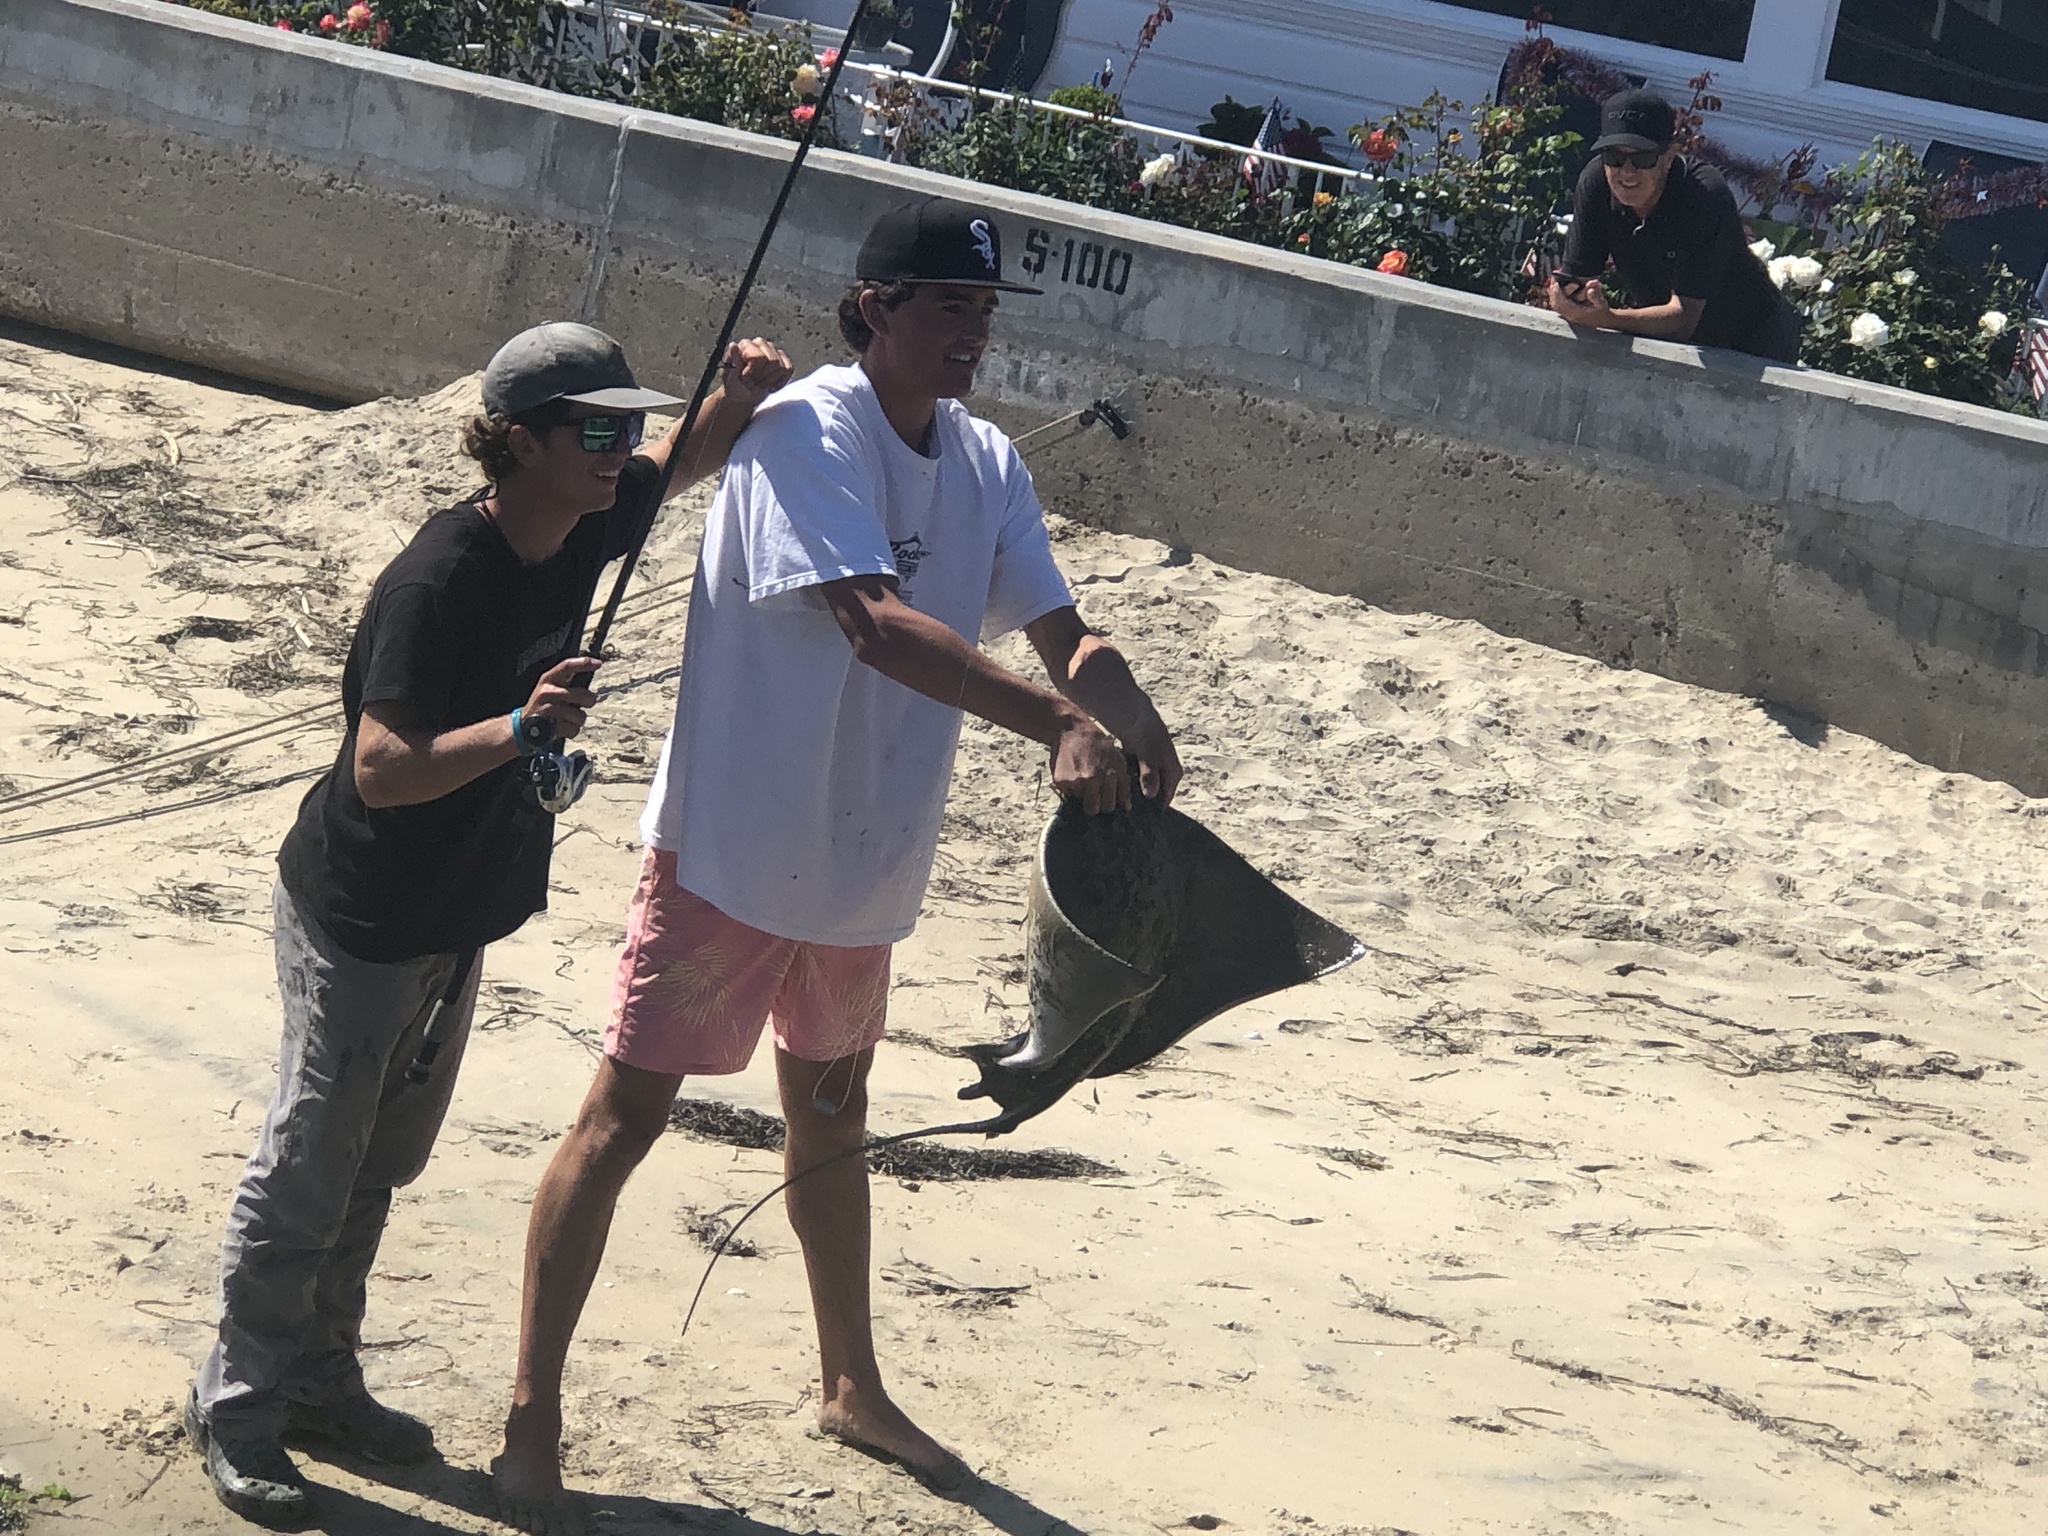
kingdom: Animalia
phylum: Chordata
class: Elasmobranchii
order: Myliobatiformes
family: Myliobatidae
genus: Myliobatis
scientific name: Myliobatis californica
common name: Bat ray
